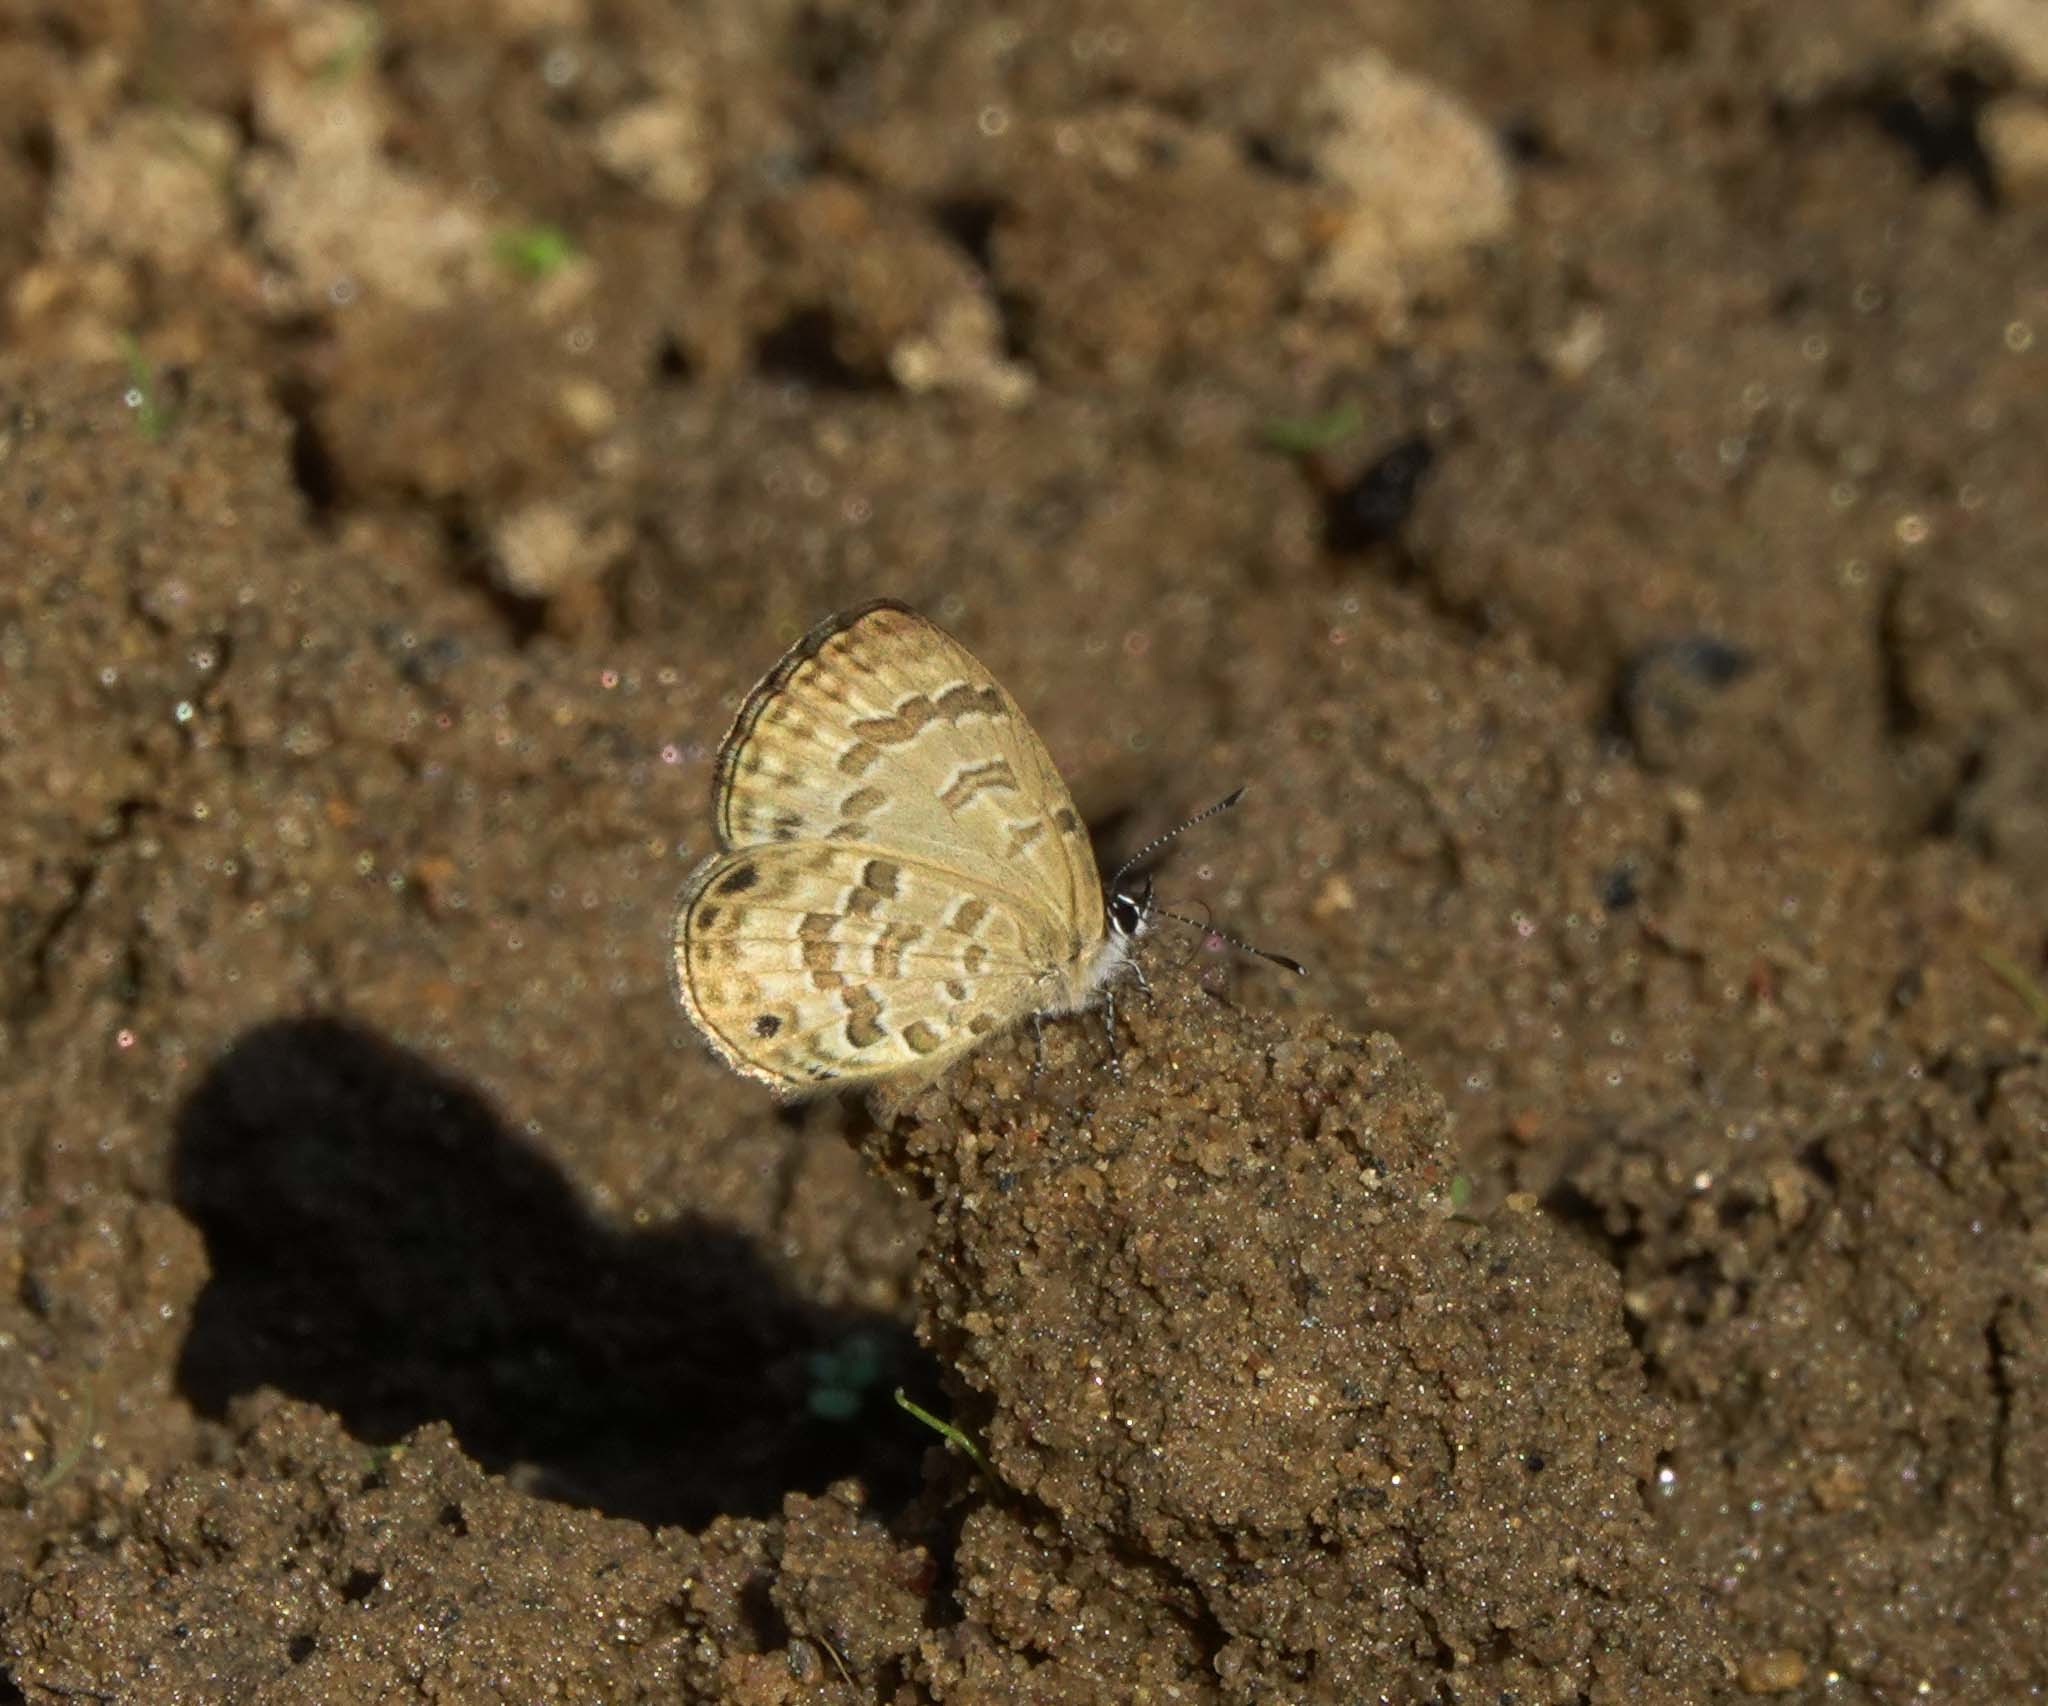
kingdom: Animalia
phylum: Arthropoda
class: Insecta
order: Lepidoptera
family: Lycaenidae
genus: Prosotas
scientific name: Prosotas lutea
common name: Brown lineblue
